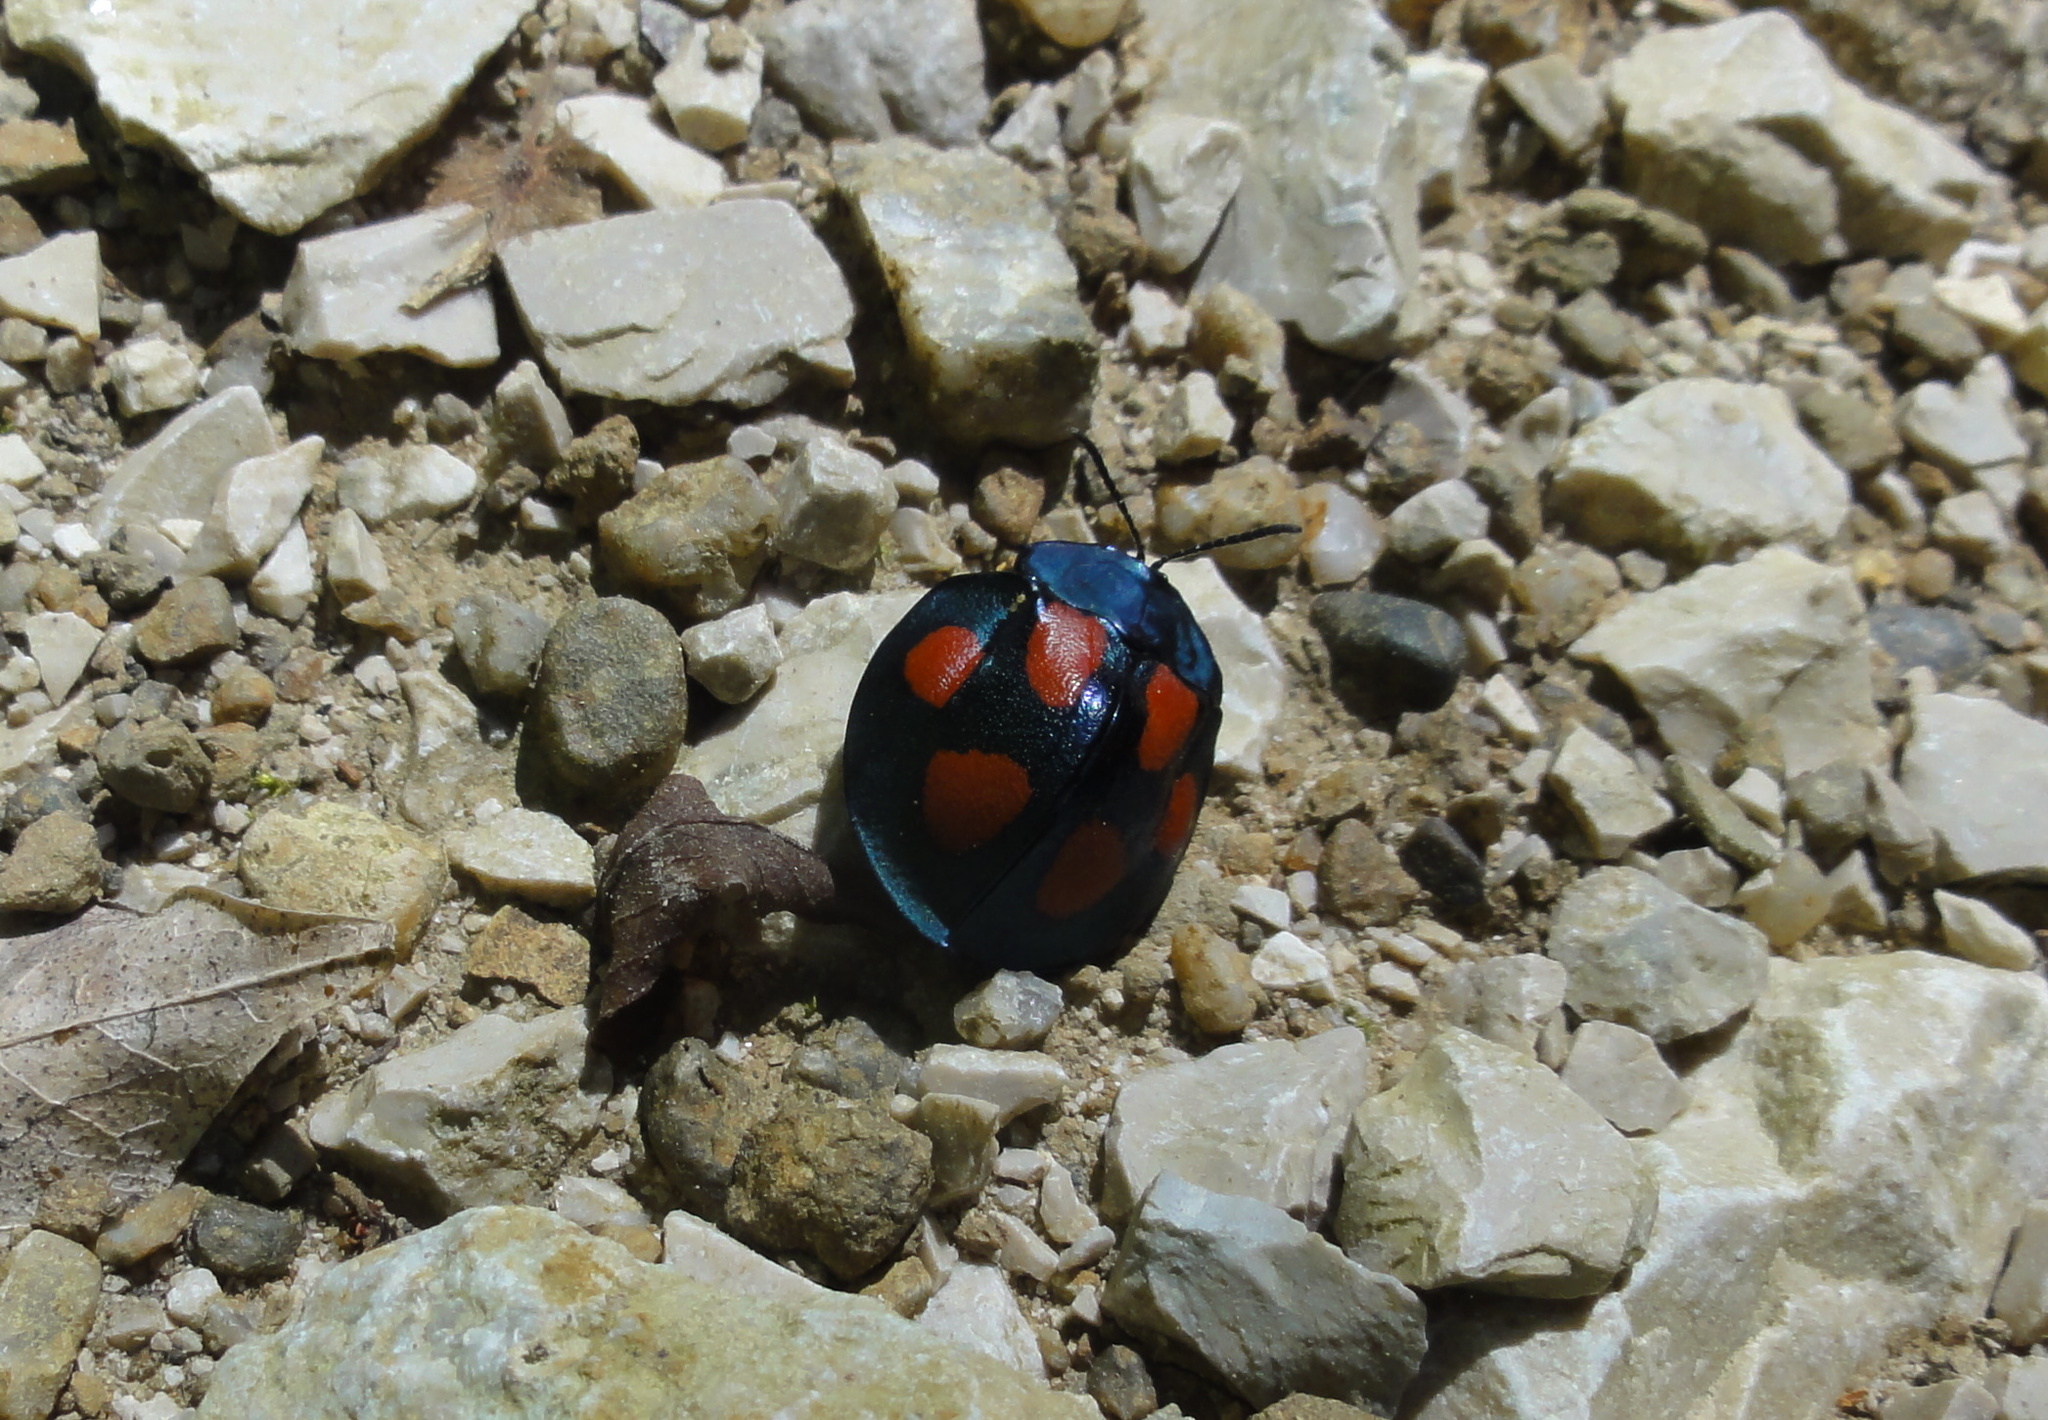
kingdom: Animalia
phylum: Arthropoda
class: Insecta
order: Coleoptera
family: Chrysomelidae
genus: Stolas
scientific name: Stolas illustris
